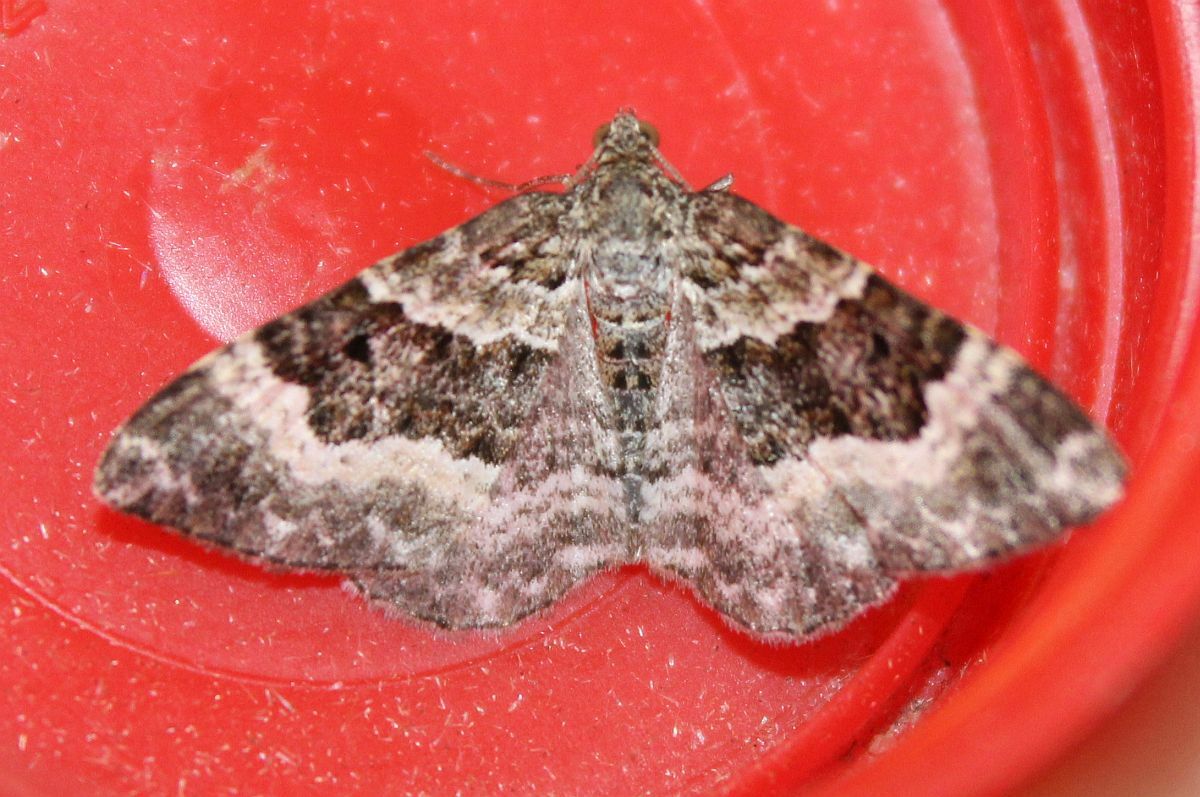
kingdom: Animalia
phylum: Arthropoda
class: Insecta
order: Lepidoptera
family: Geometridae
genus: Epirrhoe
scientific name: Epirrhoe alternata
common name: Common carpet
